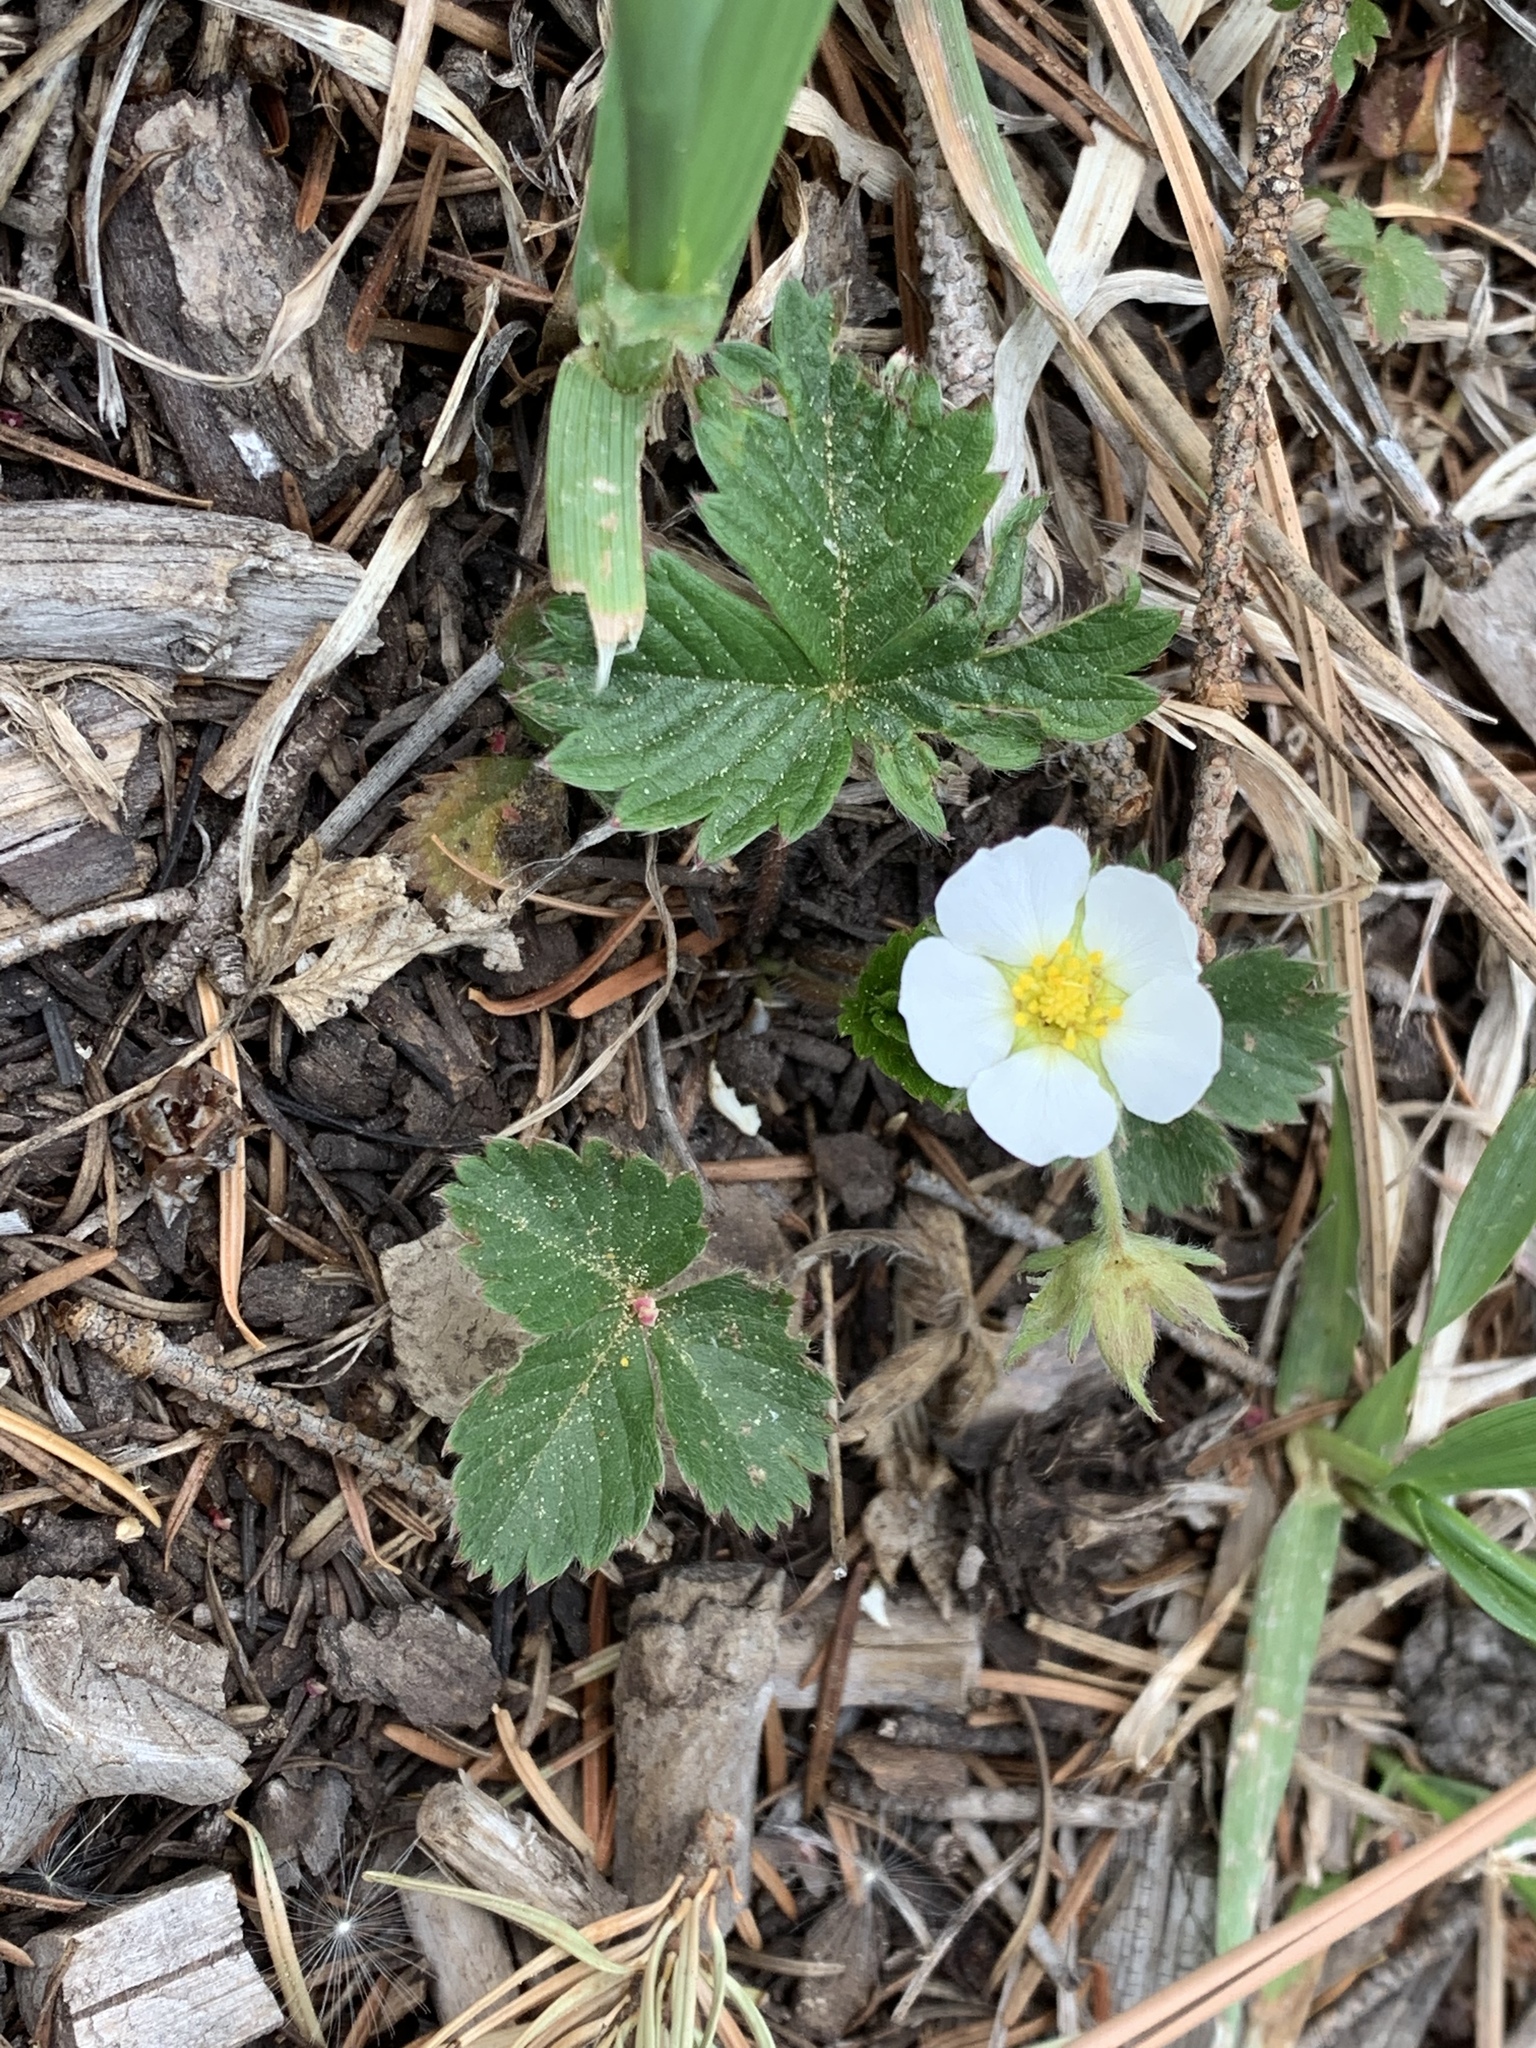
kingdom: Plantae
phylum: Tracheophyta
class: Magnoliopsida
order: Rosales
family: Rosaceae
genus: Fragaria
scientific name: Fragaria vesca
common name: Wild strawberry
